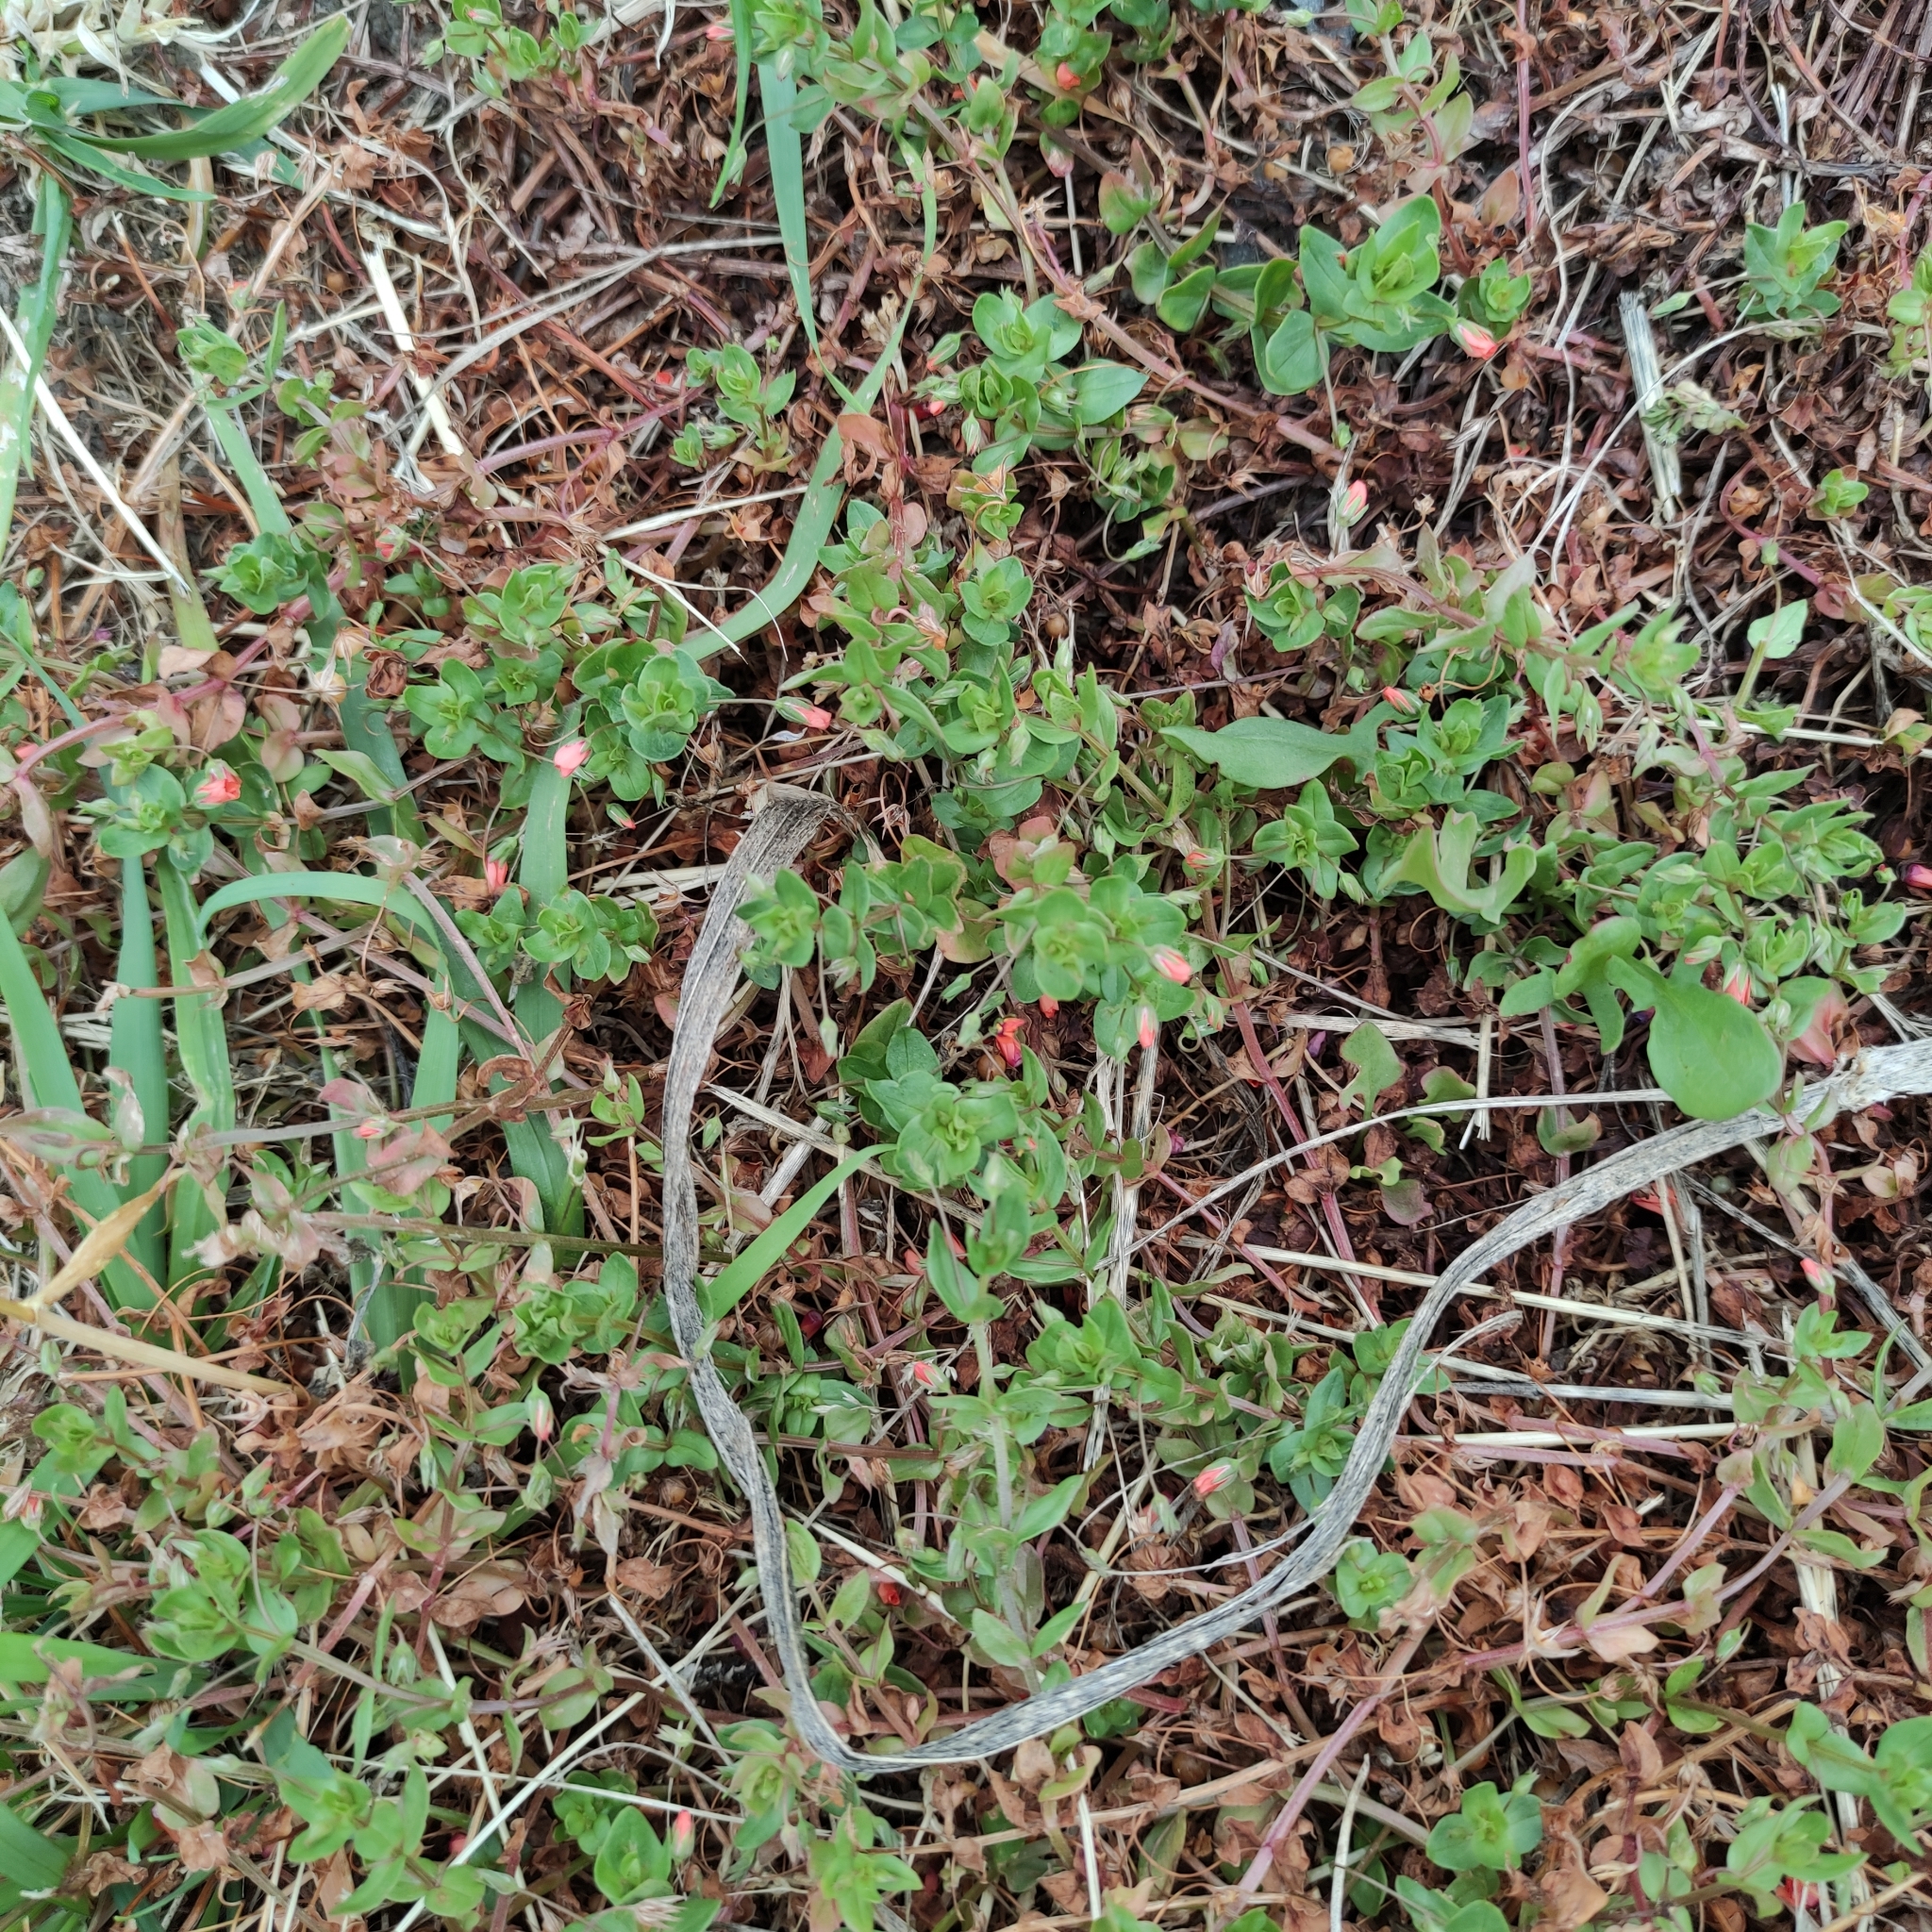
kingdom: Plantae
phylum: Tracheophyta
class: Magnoliopsida
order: Ericales
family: Primulaceae
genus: Lysimachia
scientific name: Lysimachia arvensis
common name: Scarlet pimpernel
